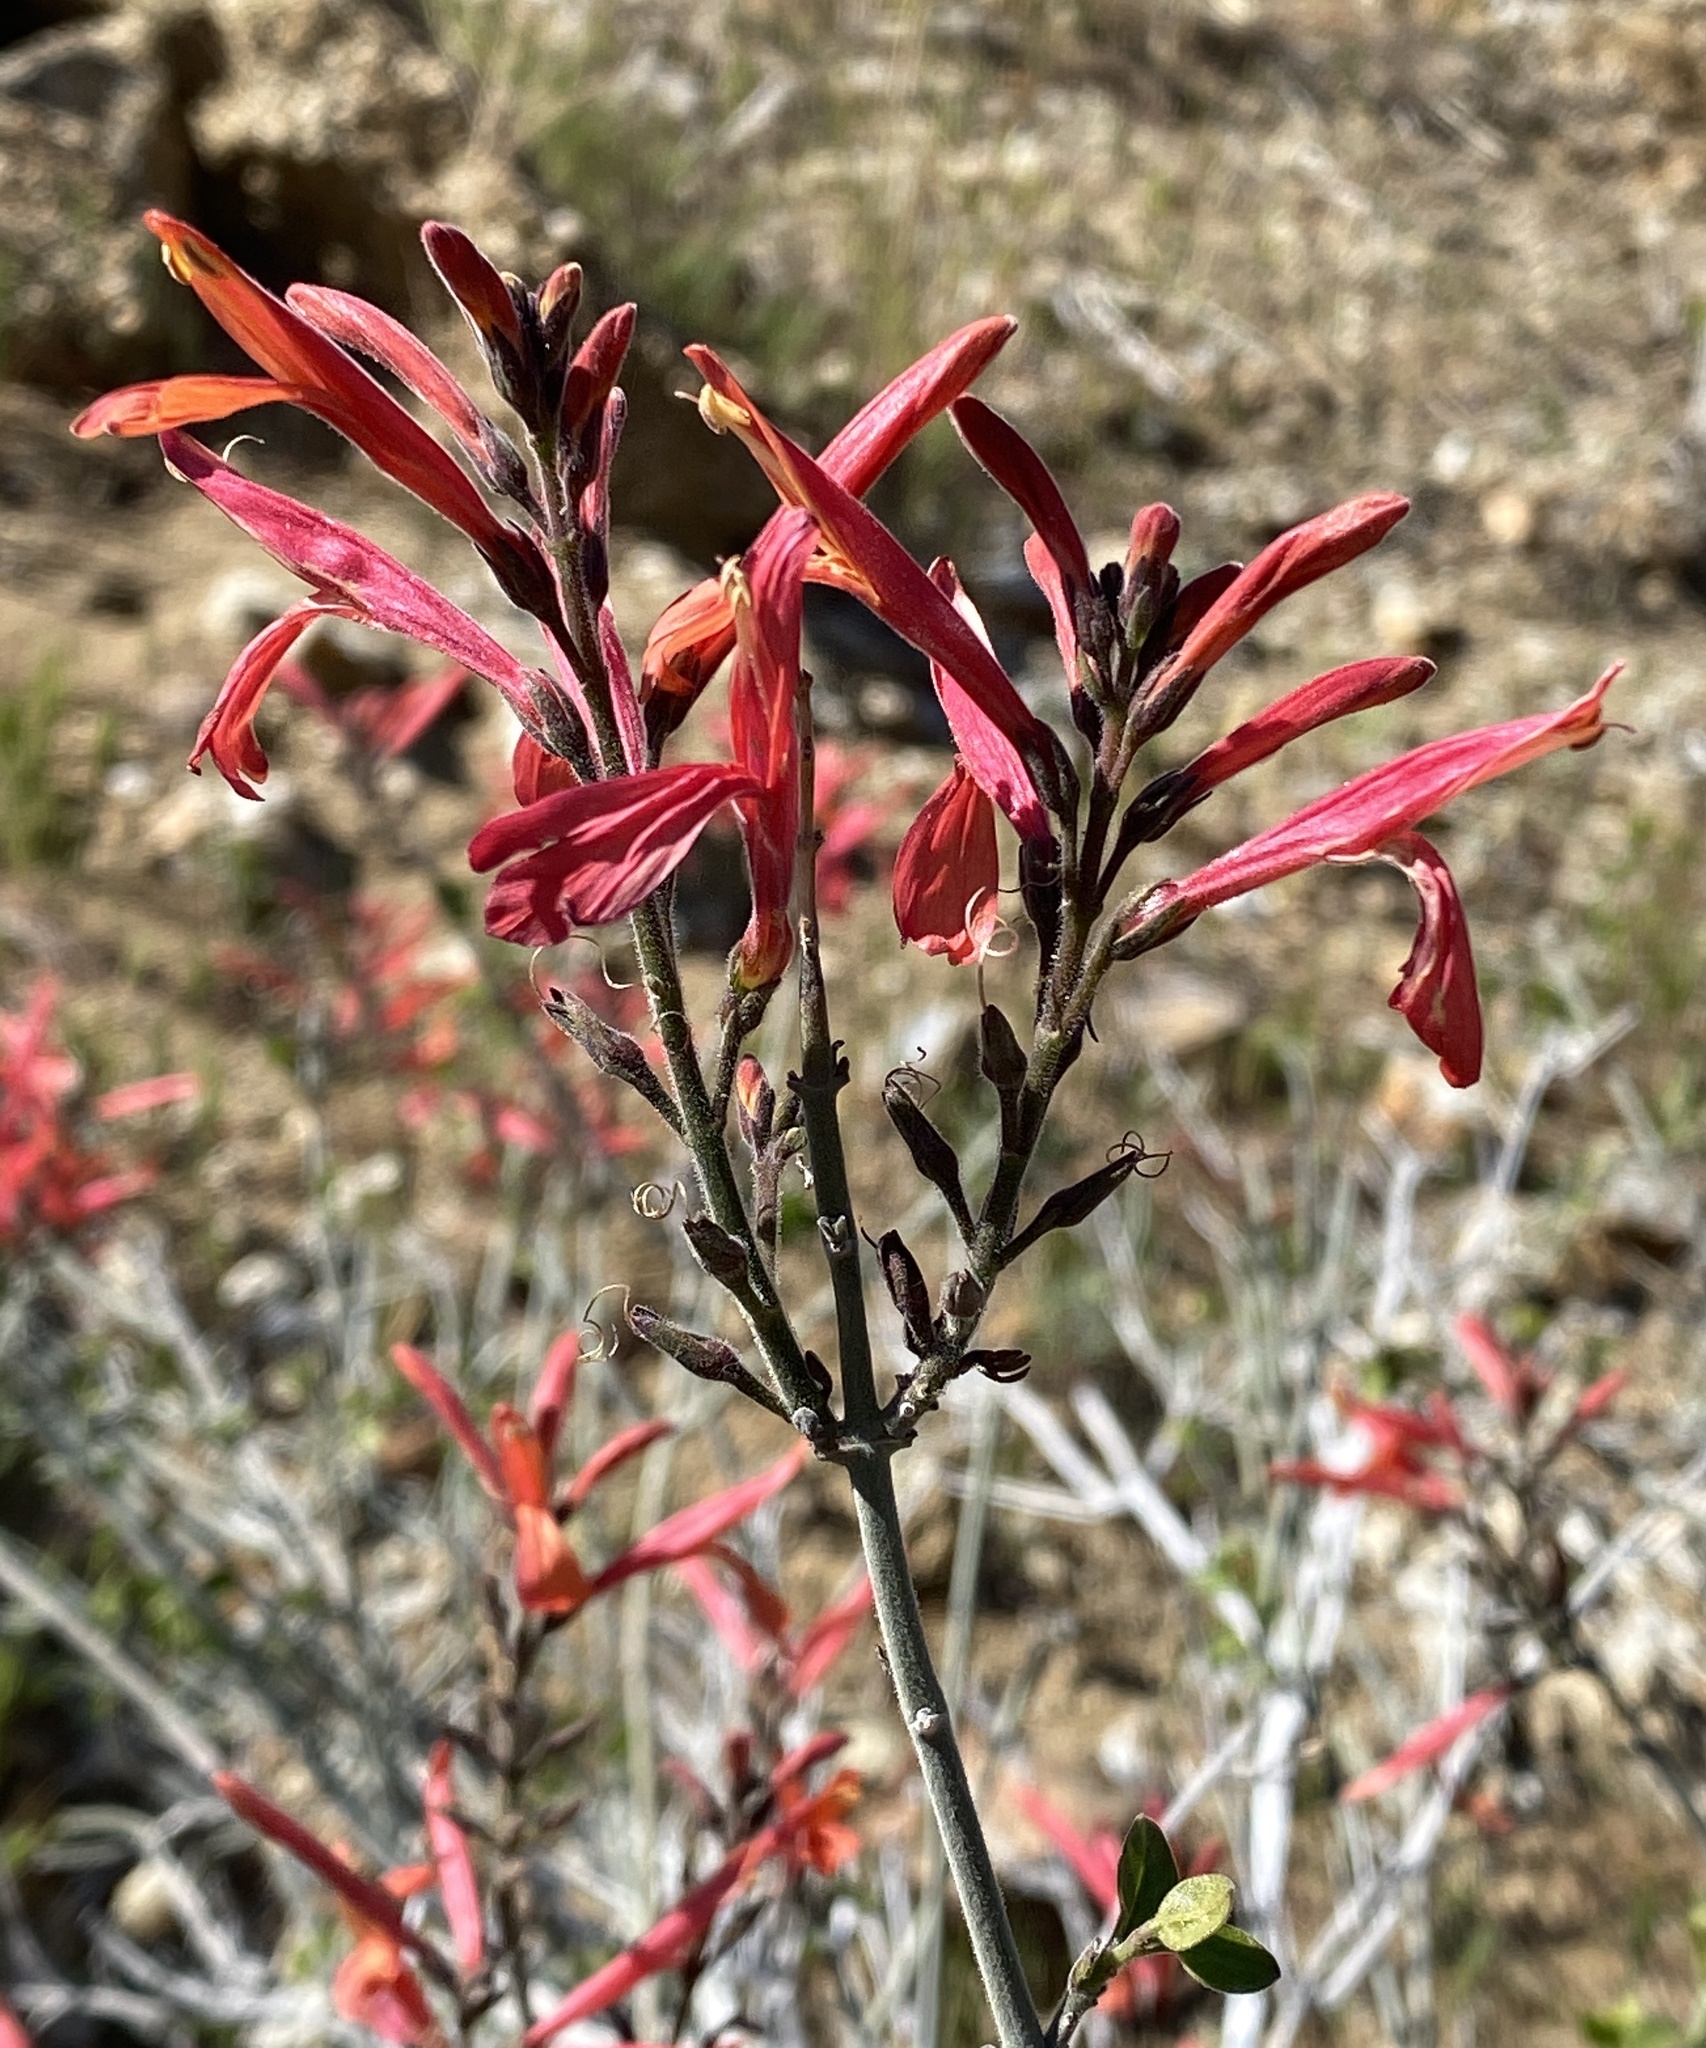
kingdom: Plantae
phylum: Tracheophyta
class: Magnoliopsida
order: Lamiales
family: Acanthaceae
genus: Justicia
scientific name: Justicia californica
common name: Chuparosa-honeysuckle
